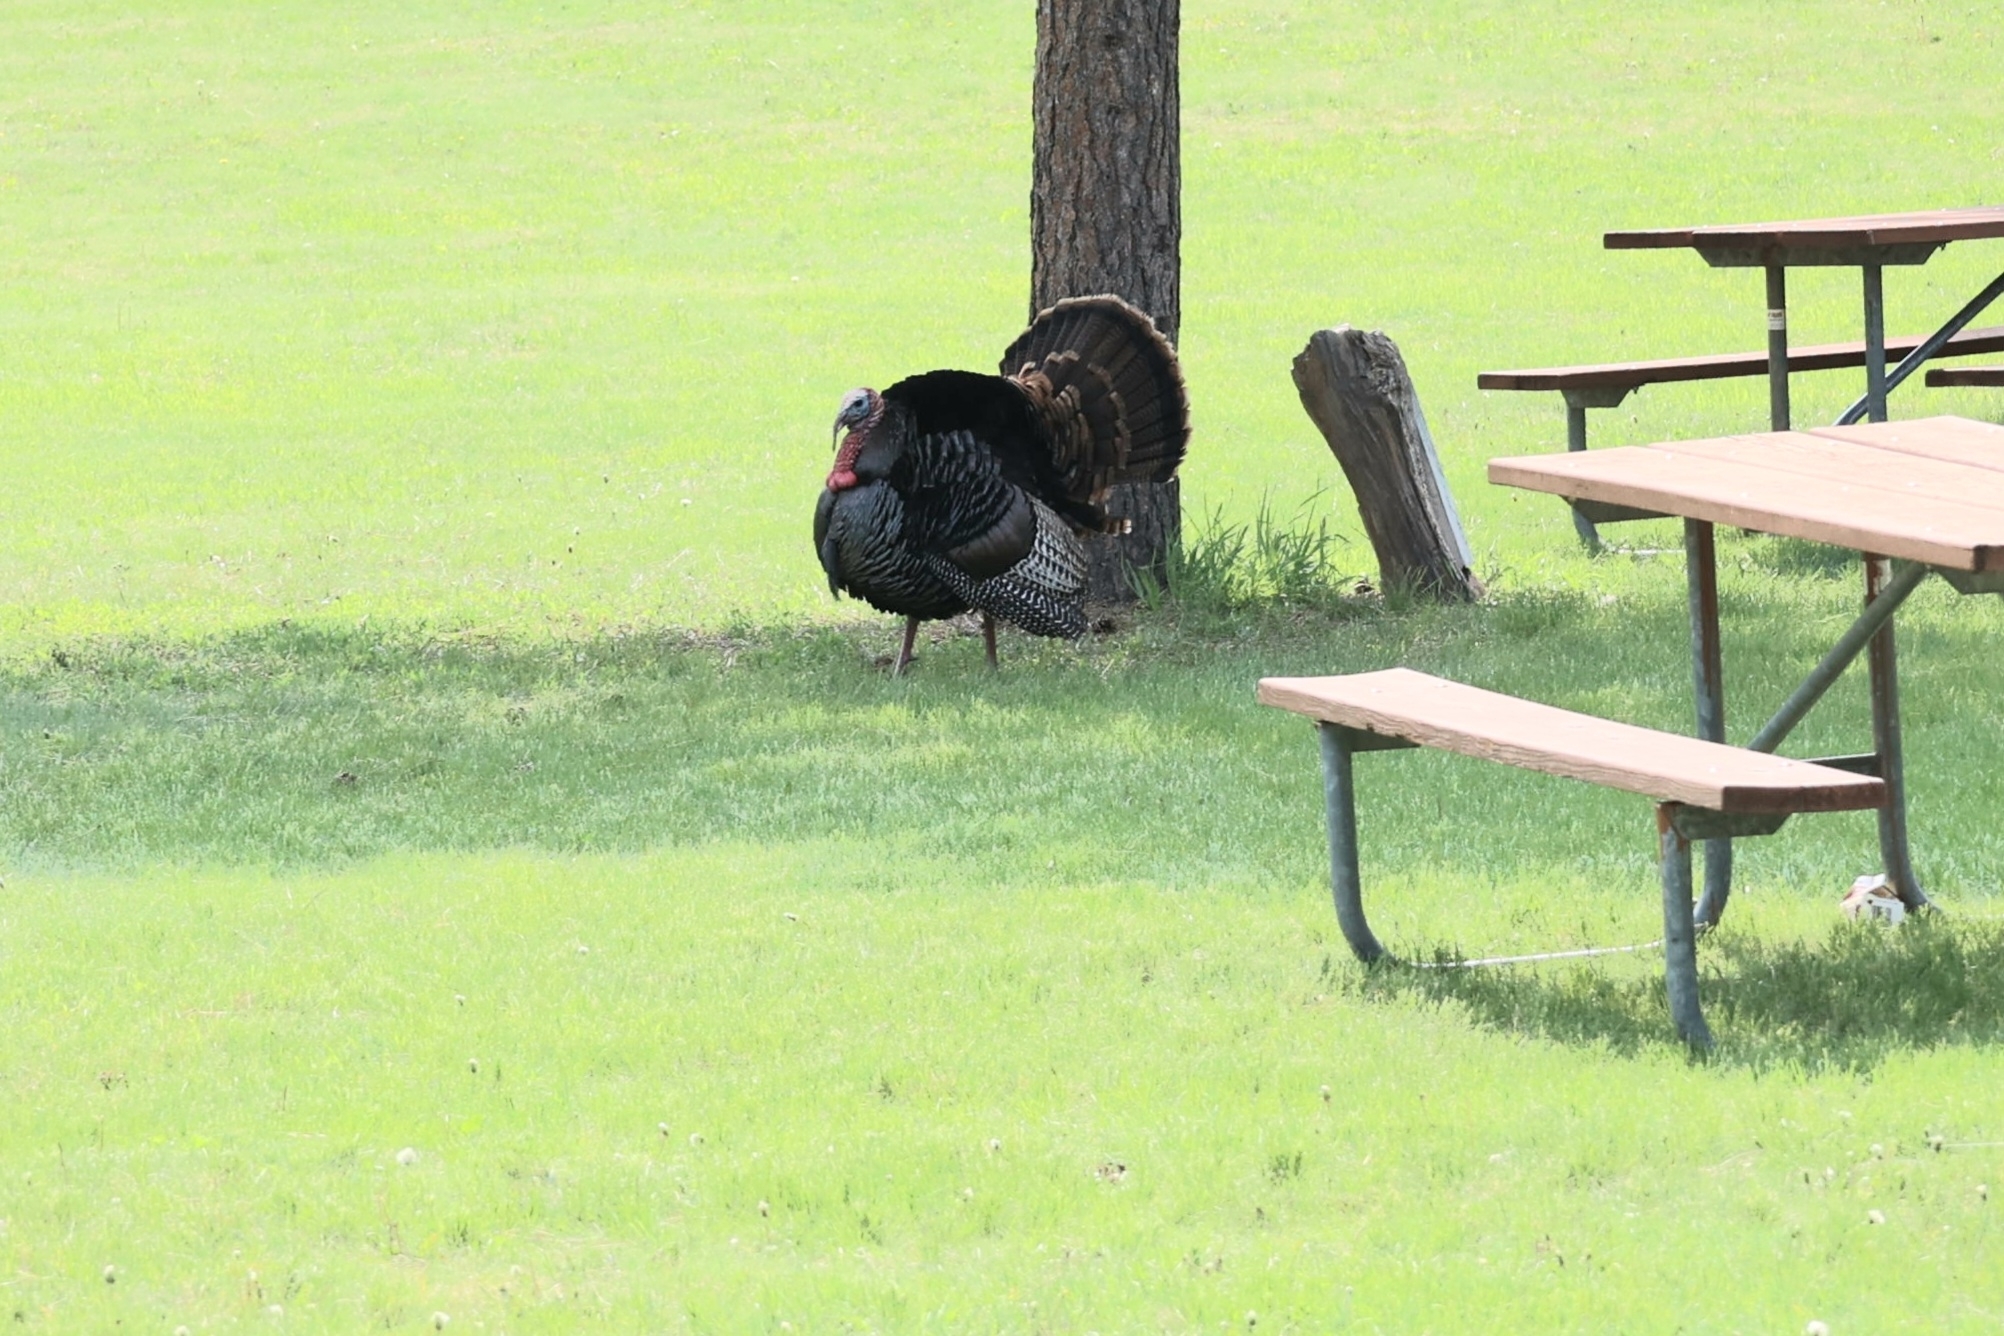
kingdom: Animalia
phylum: Chordata
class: Aves
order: Galliformes
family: Phasianidae
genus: Meleagris
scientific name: Meleagris gallopavo
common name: Wild turkey
